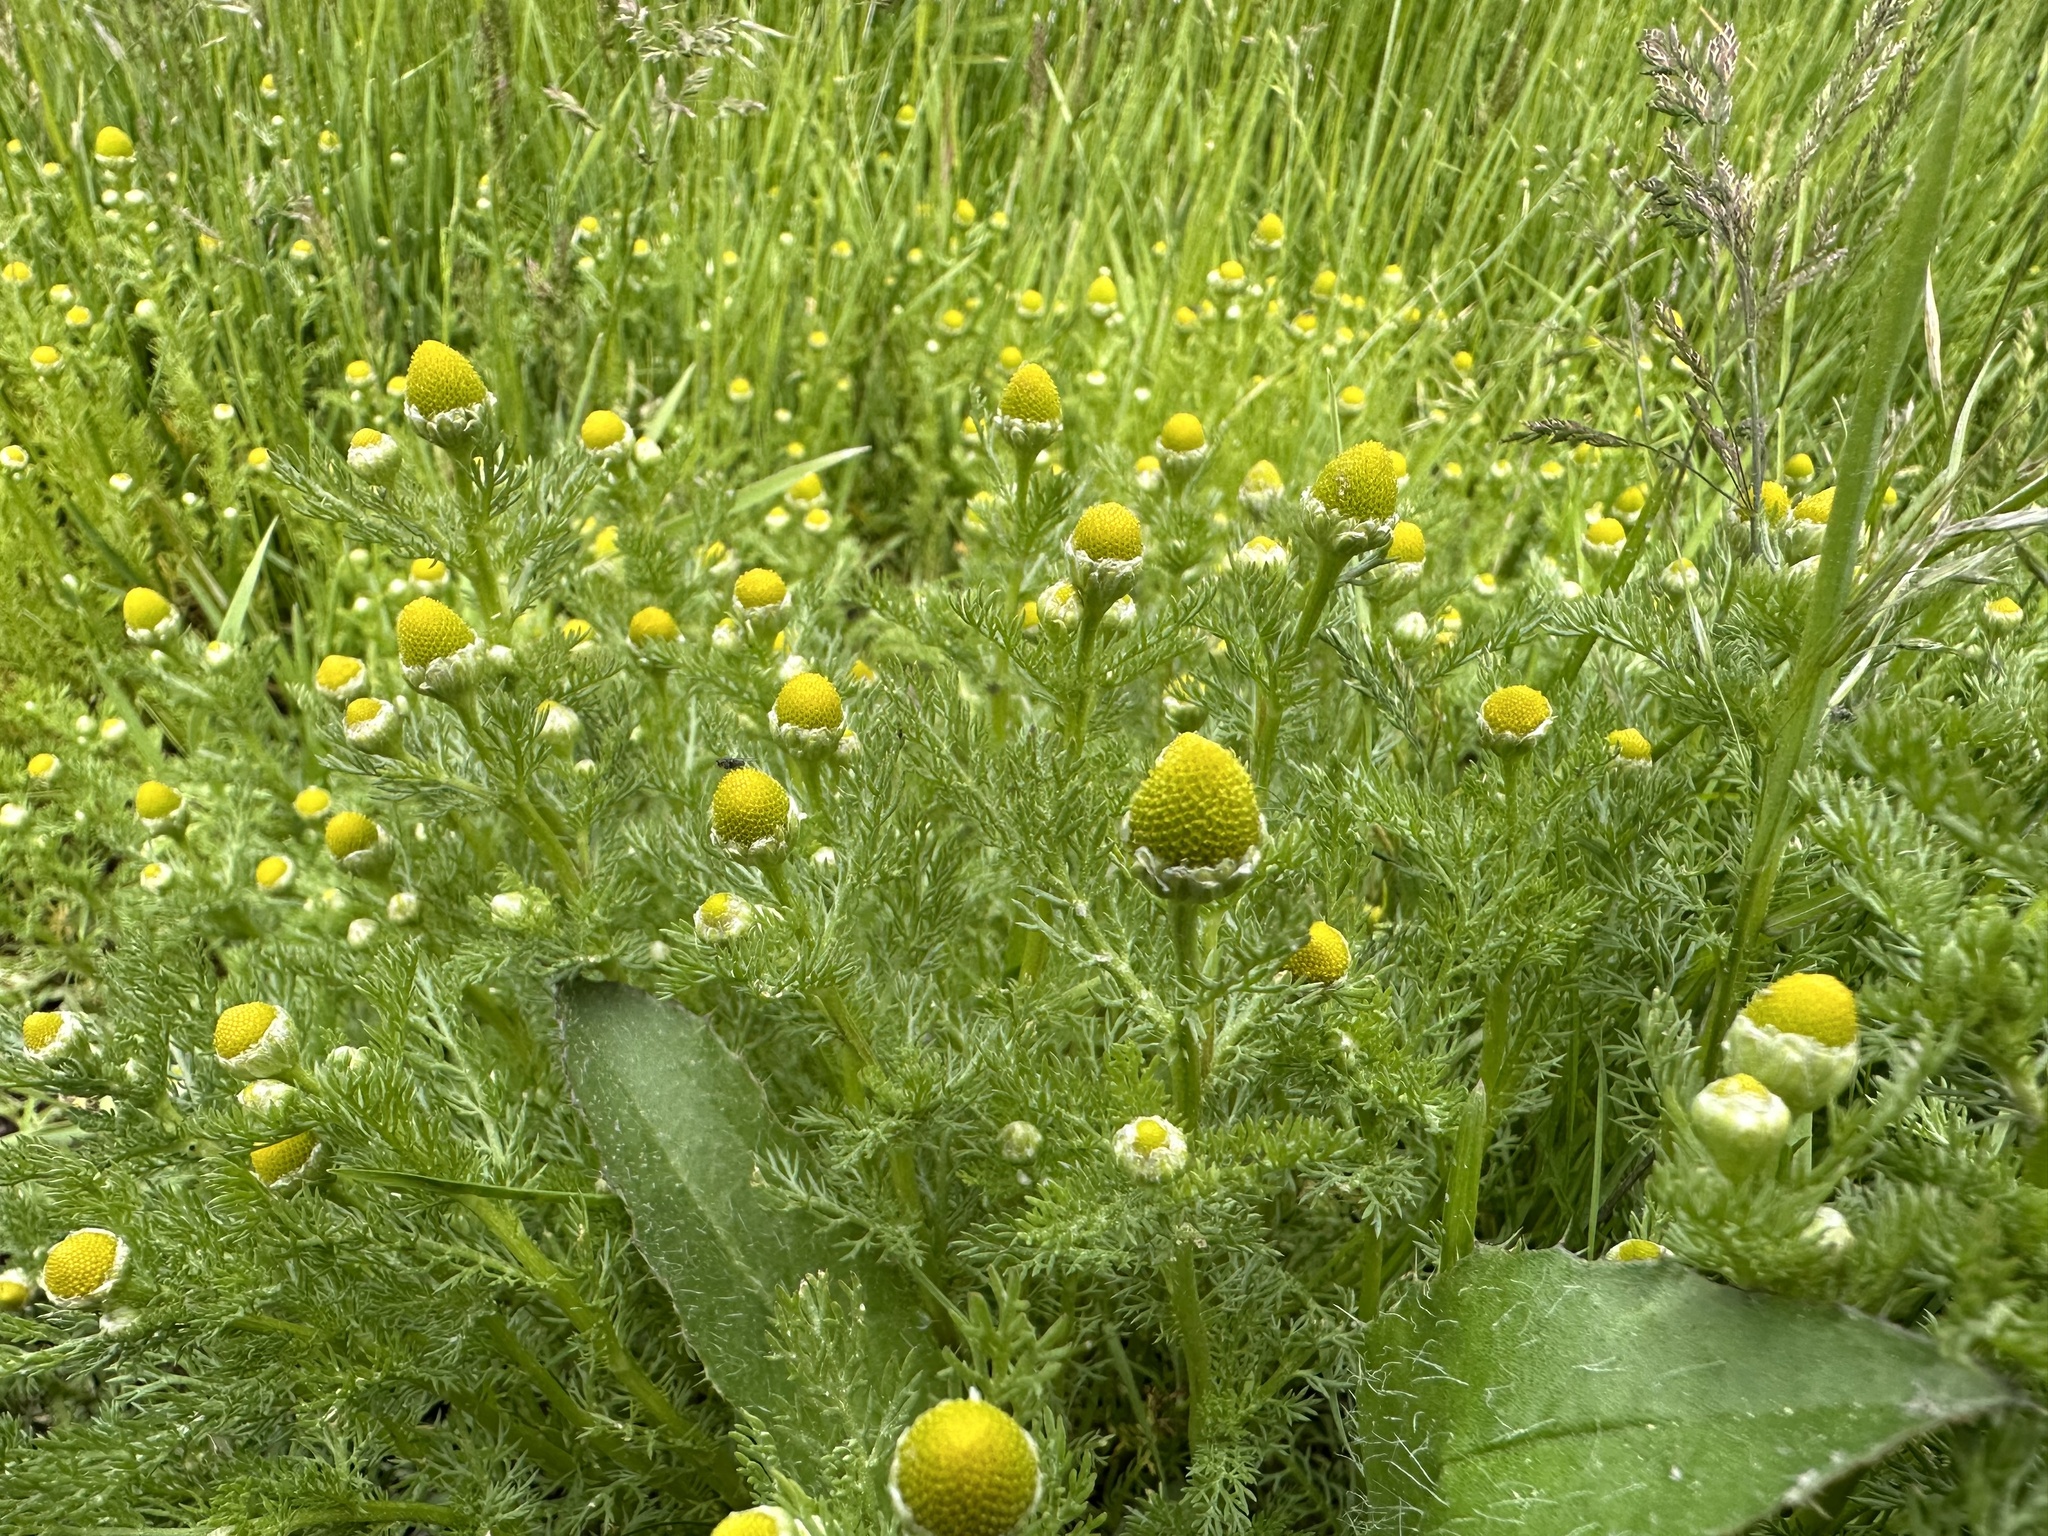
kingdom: Plantae
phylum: Tracheophyta
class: Magnoliopsida
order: Asterales
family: Asteraceae
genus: Matricaria
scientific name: Matricaria discoidea
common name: Disc mayweed
